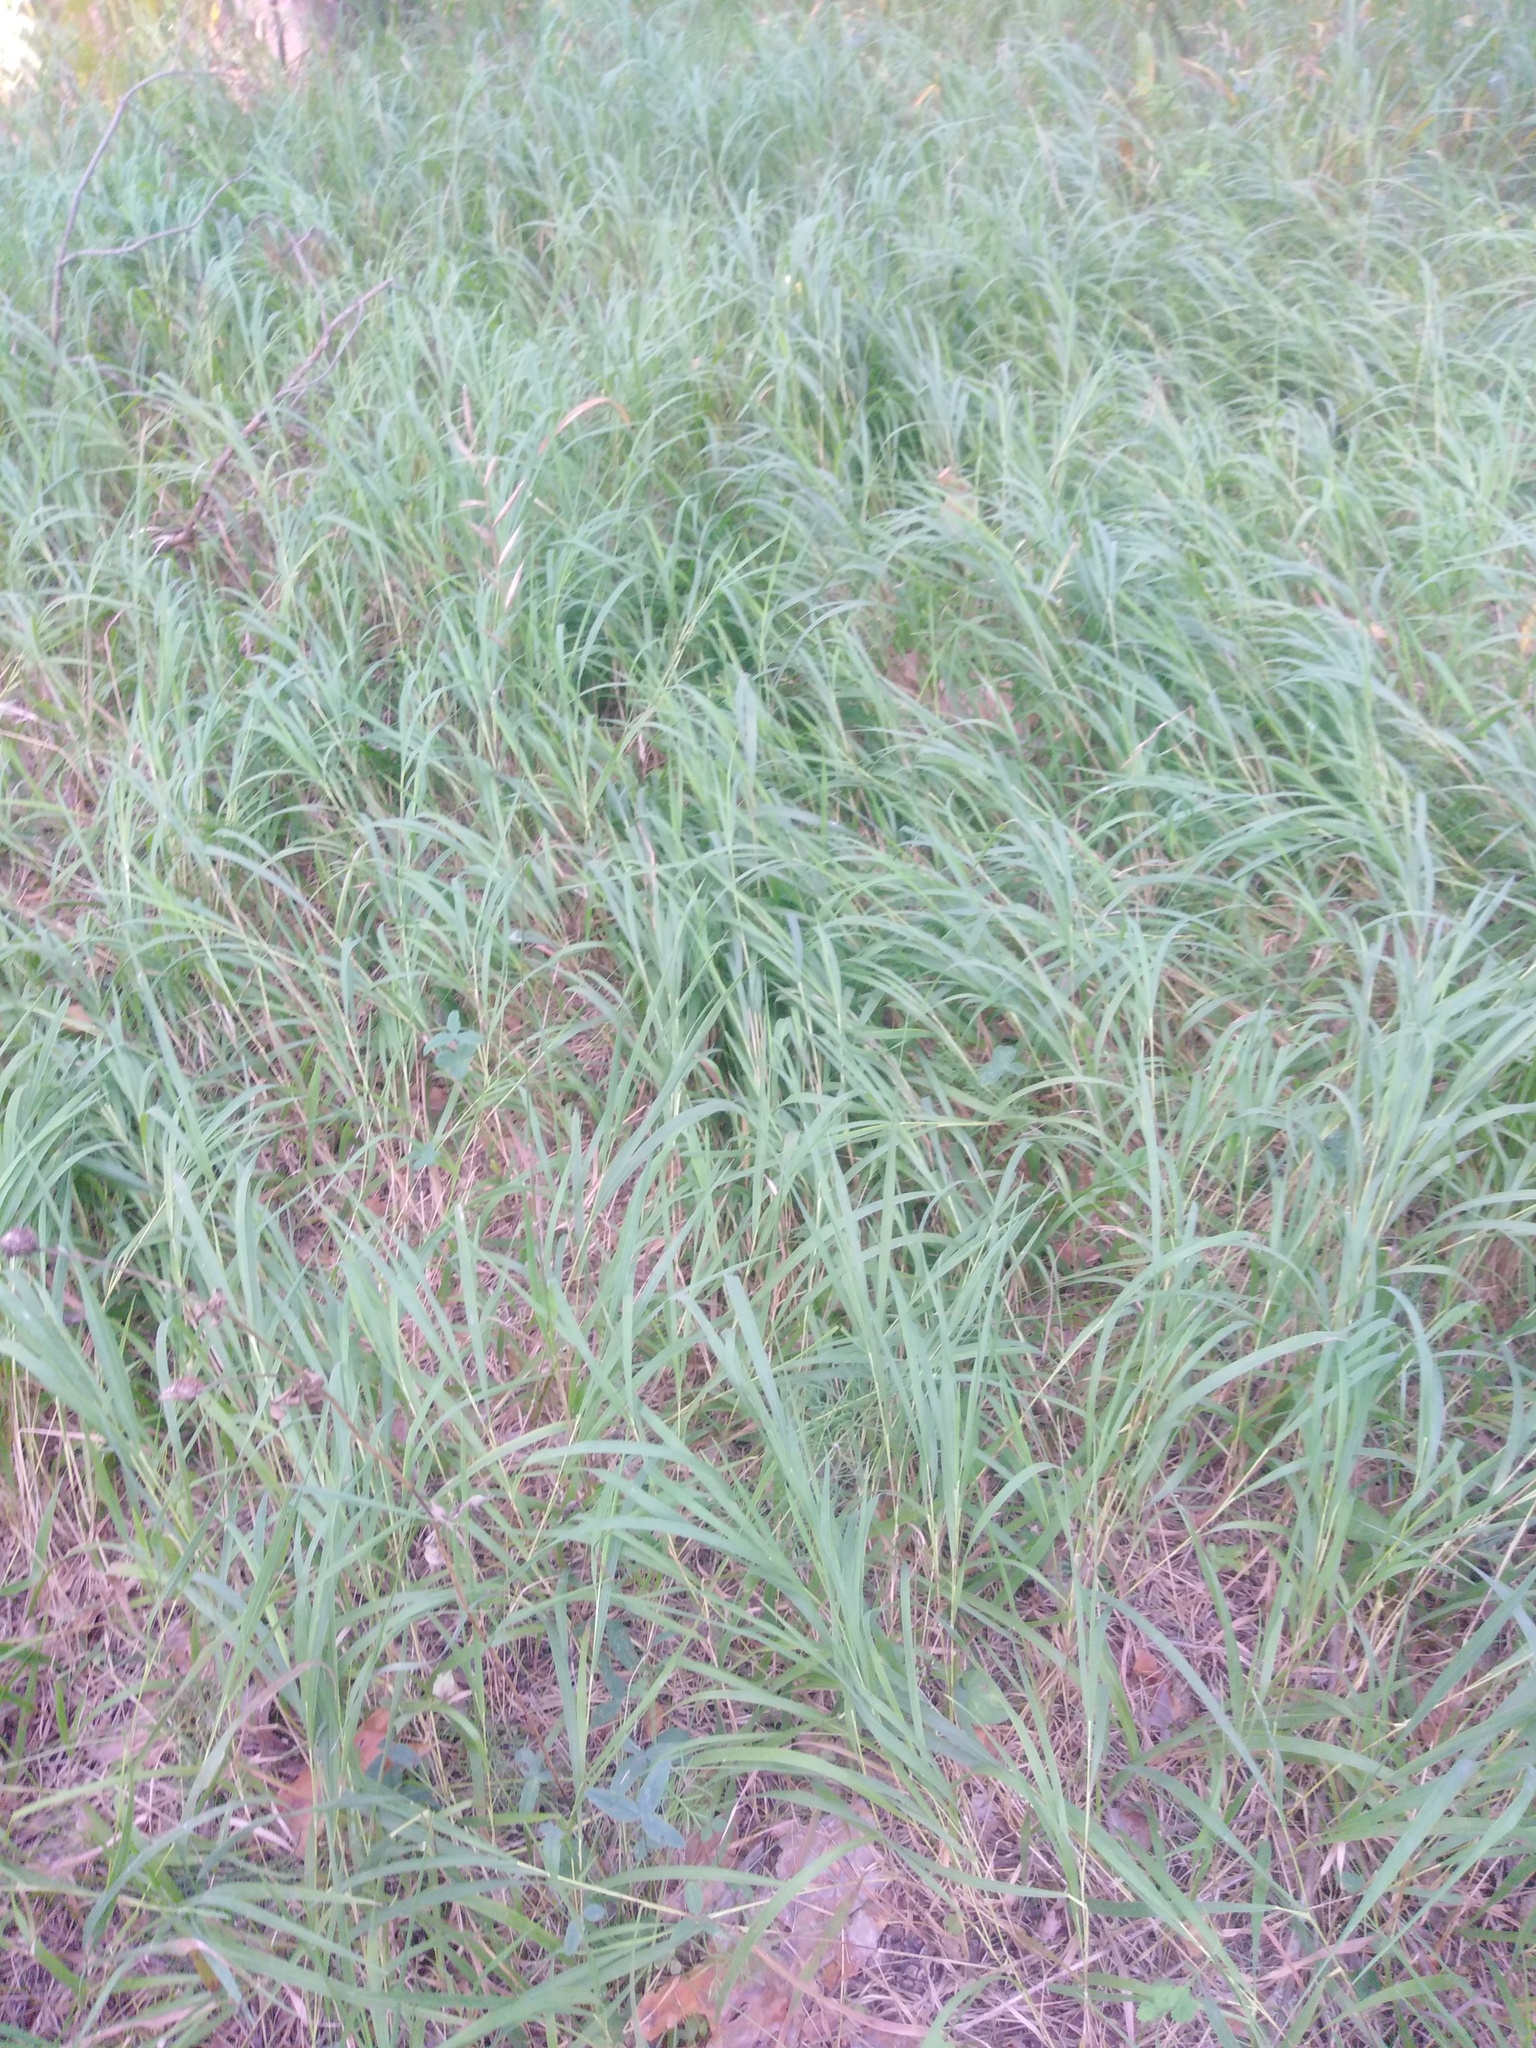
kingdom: Plantae
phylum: Tracheophyta
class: Liliopsida
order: Poales
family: Poaceae
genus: Brachypodium
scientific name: Brachypodium pinnatum
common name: Tor grass
